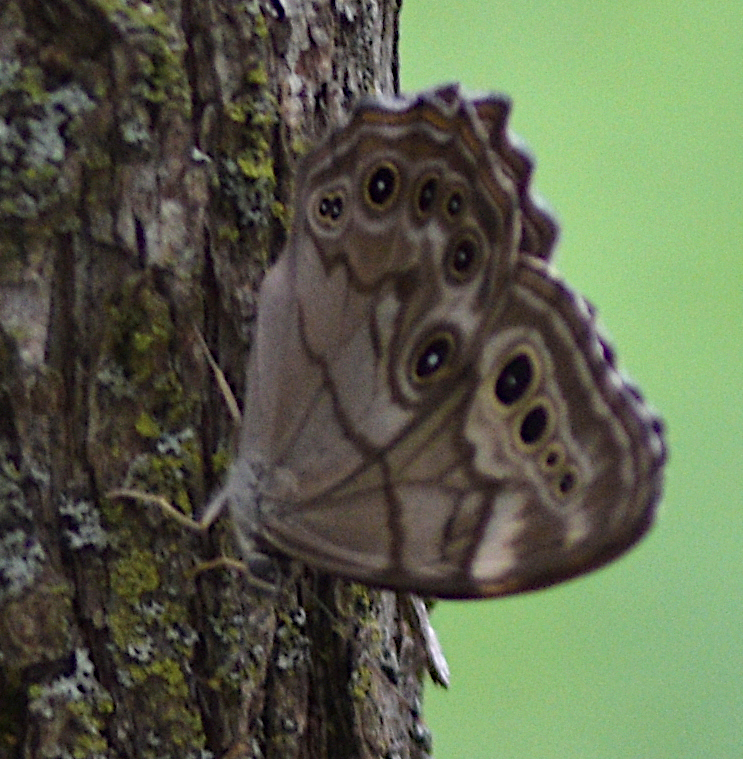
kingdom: Animalia
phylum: Arthropoda
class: Insecta
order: Lepidoptera
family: Nymphalidae
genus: Lethe
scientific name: Lethe anthedon
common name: Northern pearly-eye
